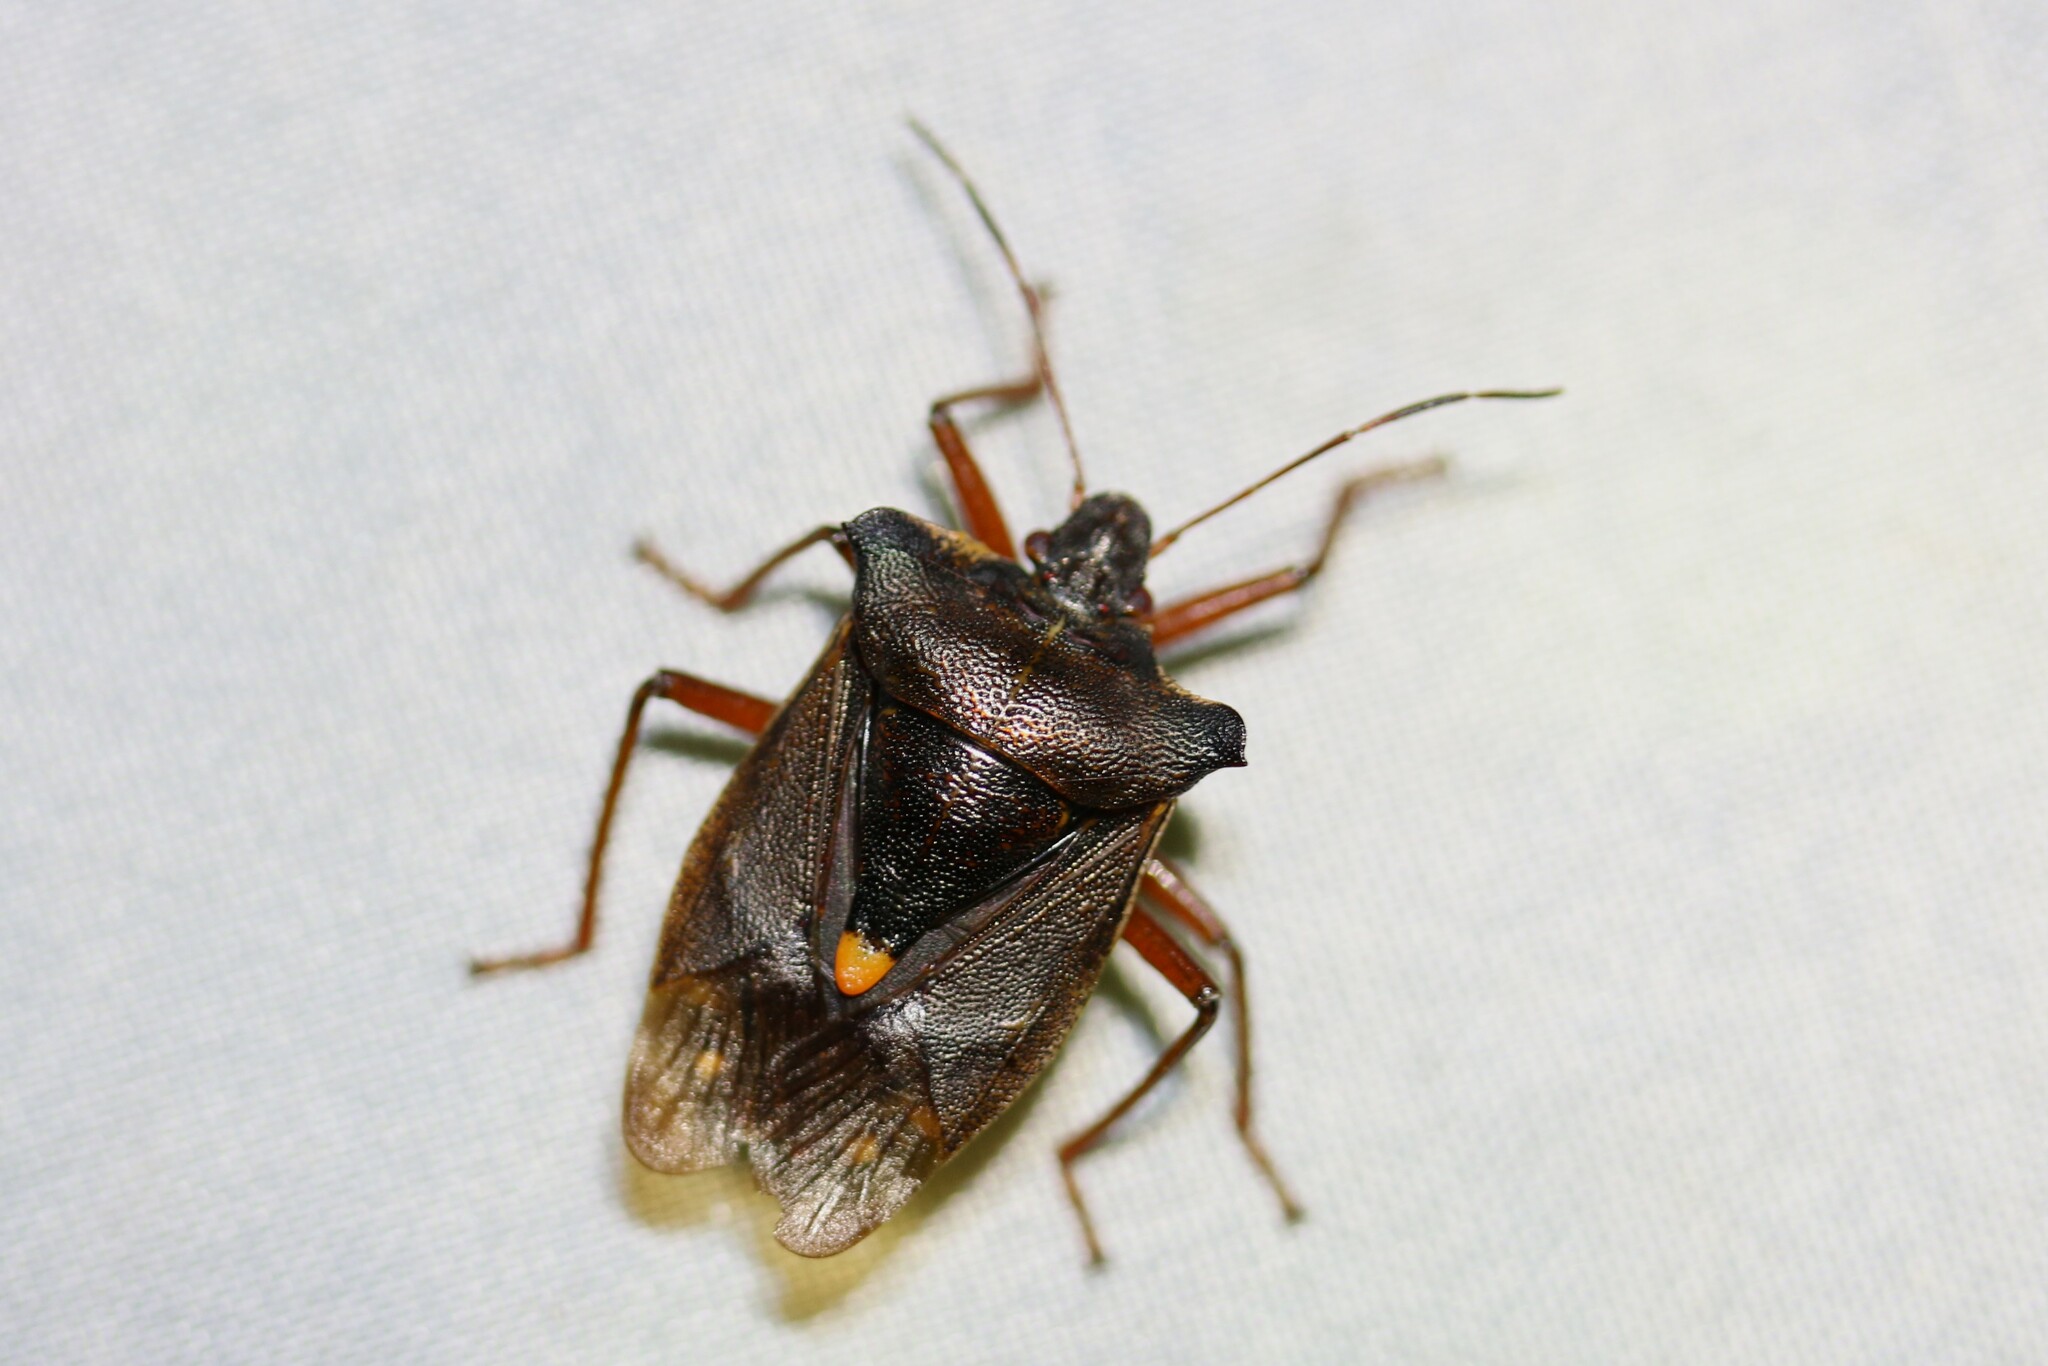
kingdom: Animalia
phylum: Arthropoda
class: Insecta
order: Hemiptera
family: Pentatomidae
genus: Pentatoma
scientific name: Pentatoma rufipes
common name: Forest bug
